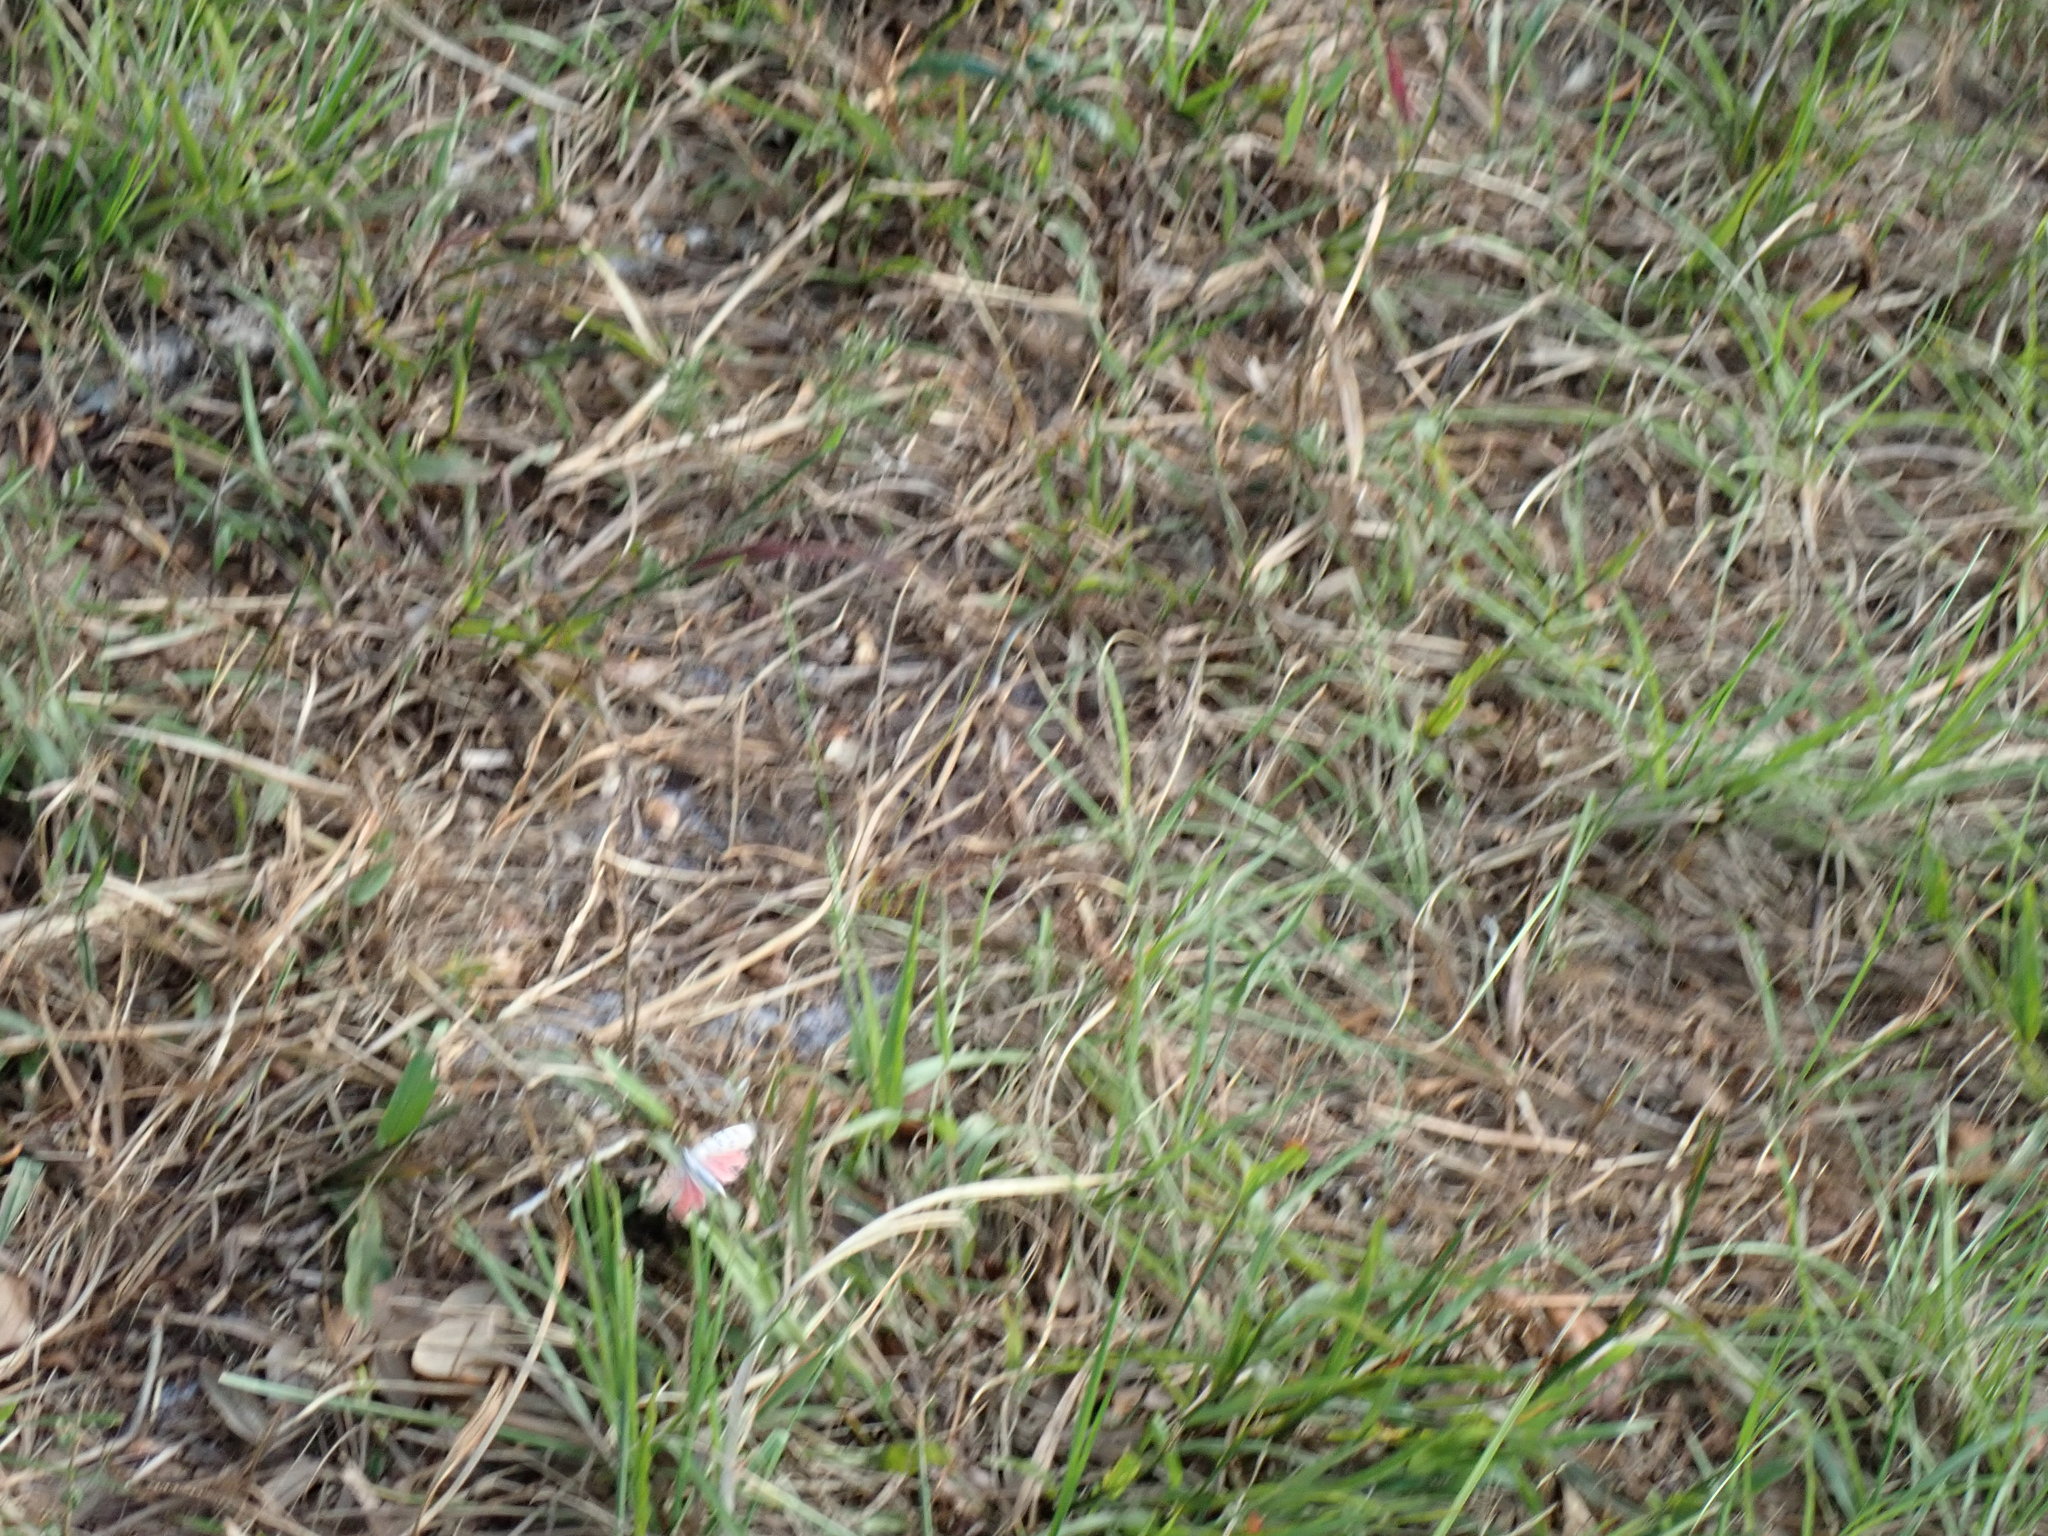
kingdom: Animalia
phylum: Arthropoda
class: Insecta
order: Lepidoptera
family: Erebidae
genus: Utetheisa
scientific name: Utetheisa ornatrix
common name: Beautiful utetheisa
